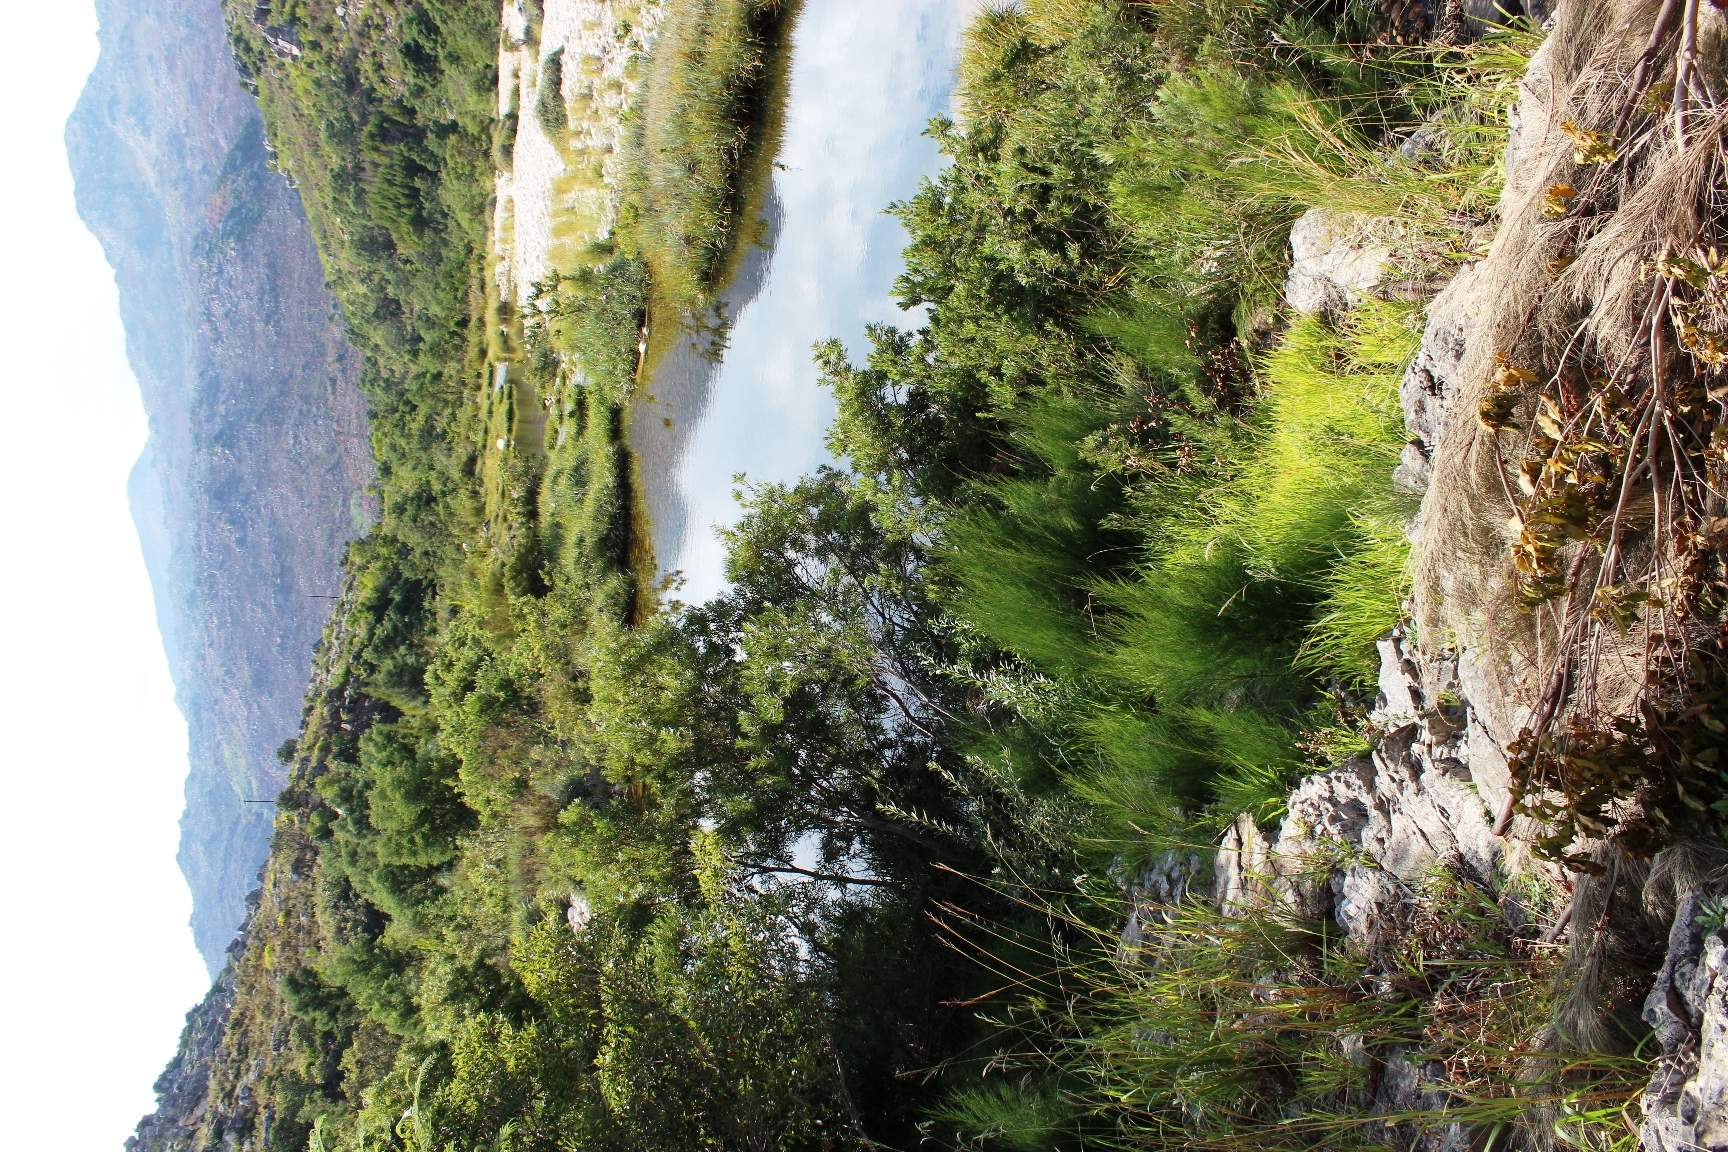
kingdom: Plantae
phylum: Tracheophyta
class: Magnoliopsida
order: Fagales
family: Casuarinaceae
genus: Casuarina
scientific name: Casuarina cunninghamiana
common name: River sheoak
